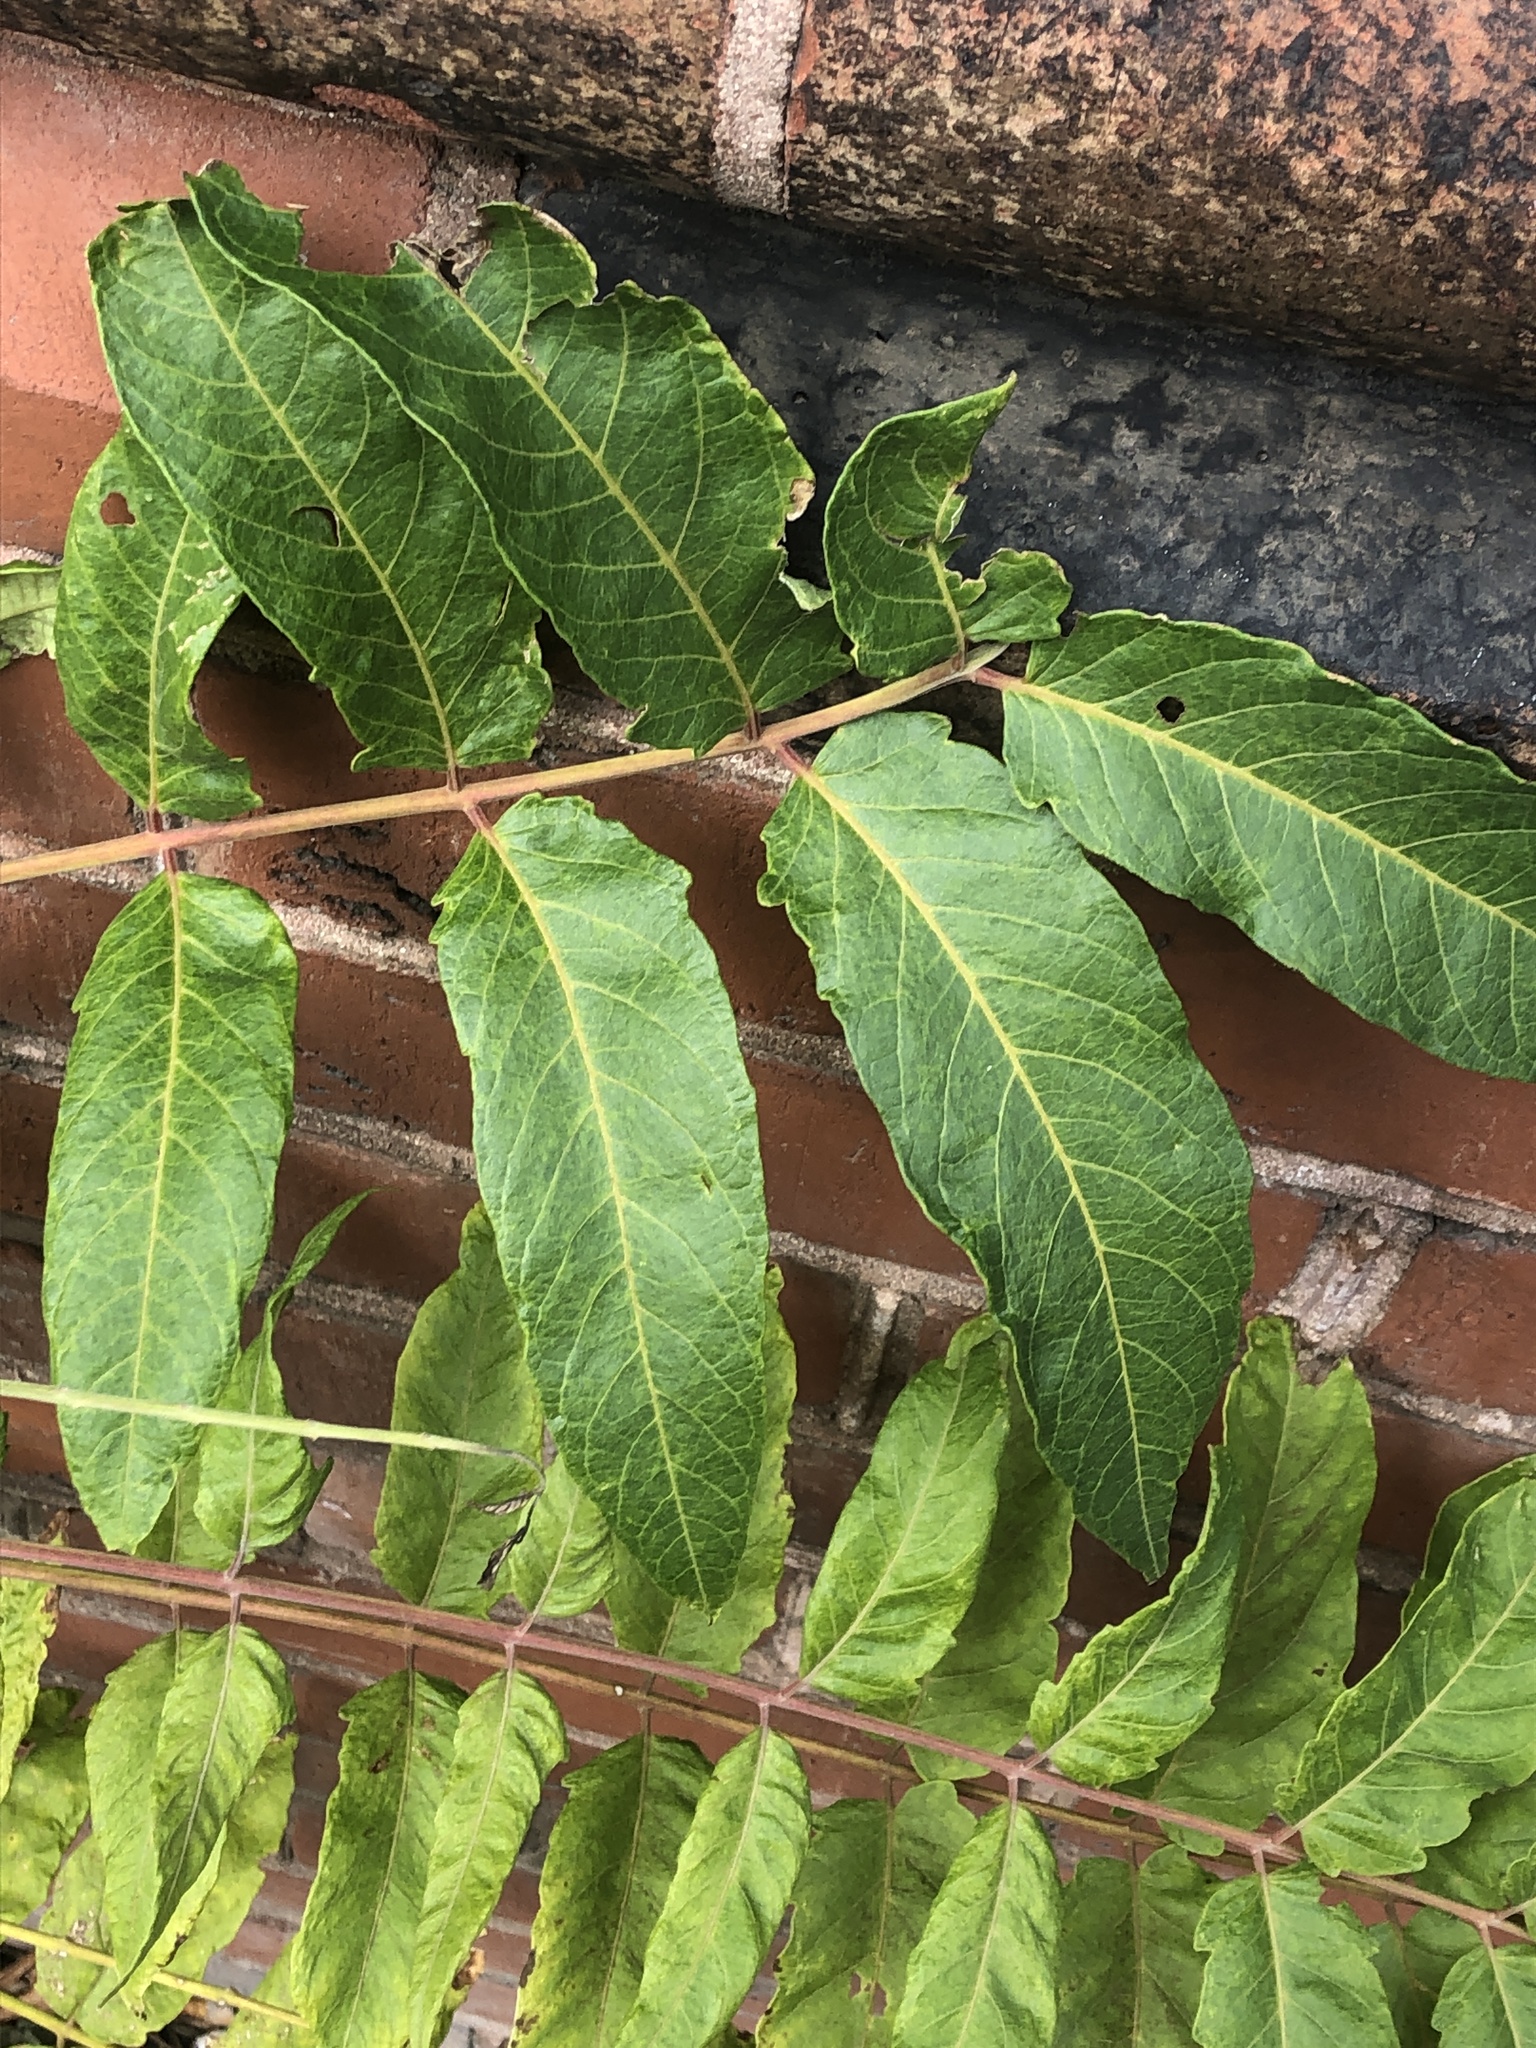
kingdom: Plantae
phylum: Tracheophyta
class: Magnoliopsida
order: Sapindales
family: Simaroubaceae
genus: Ailanthus
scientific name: Ailanthus altissima
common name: Tree-of-heaven
